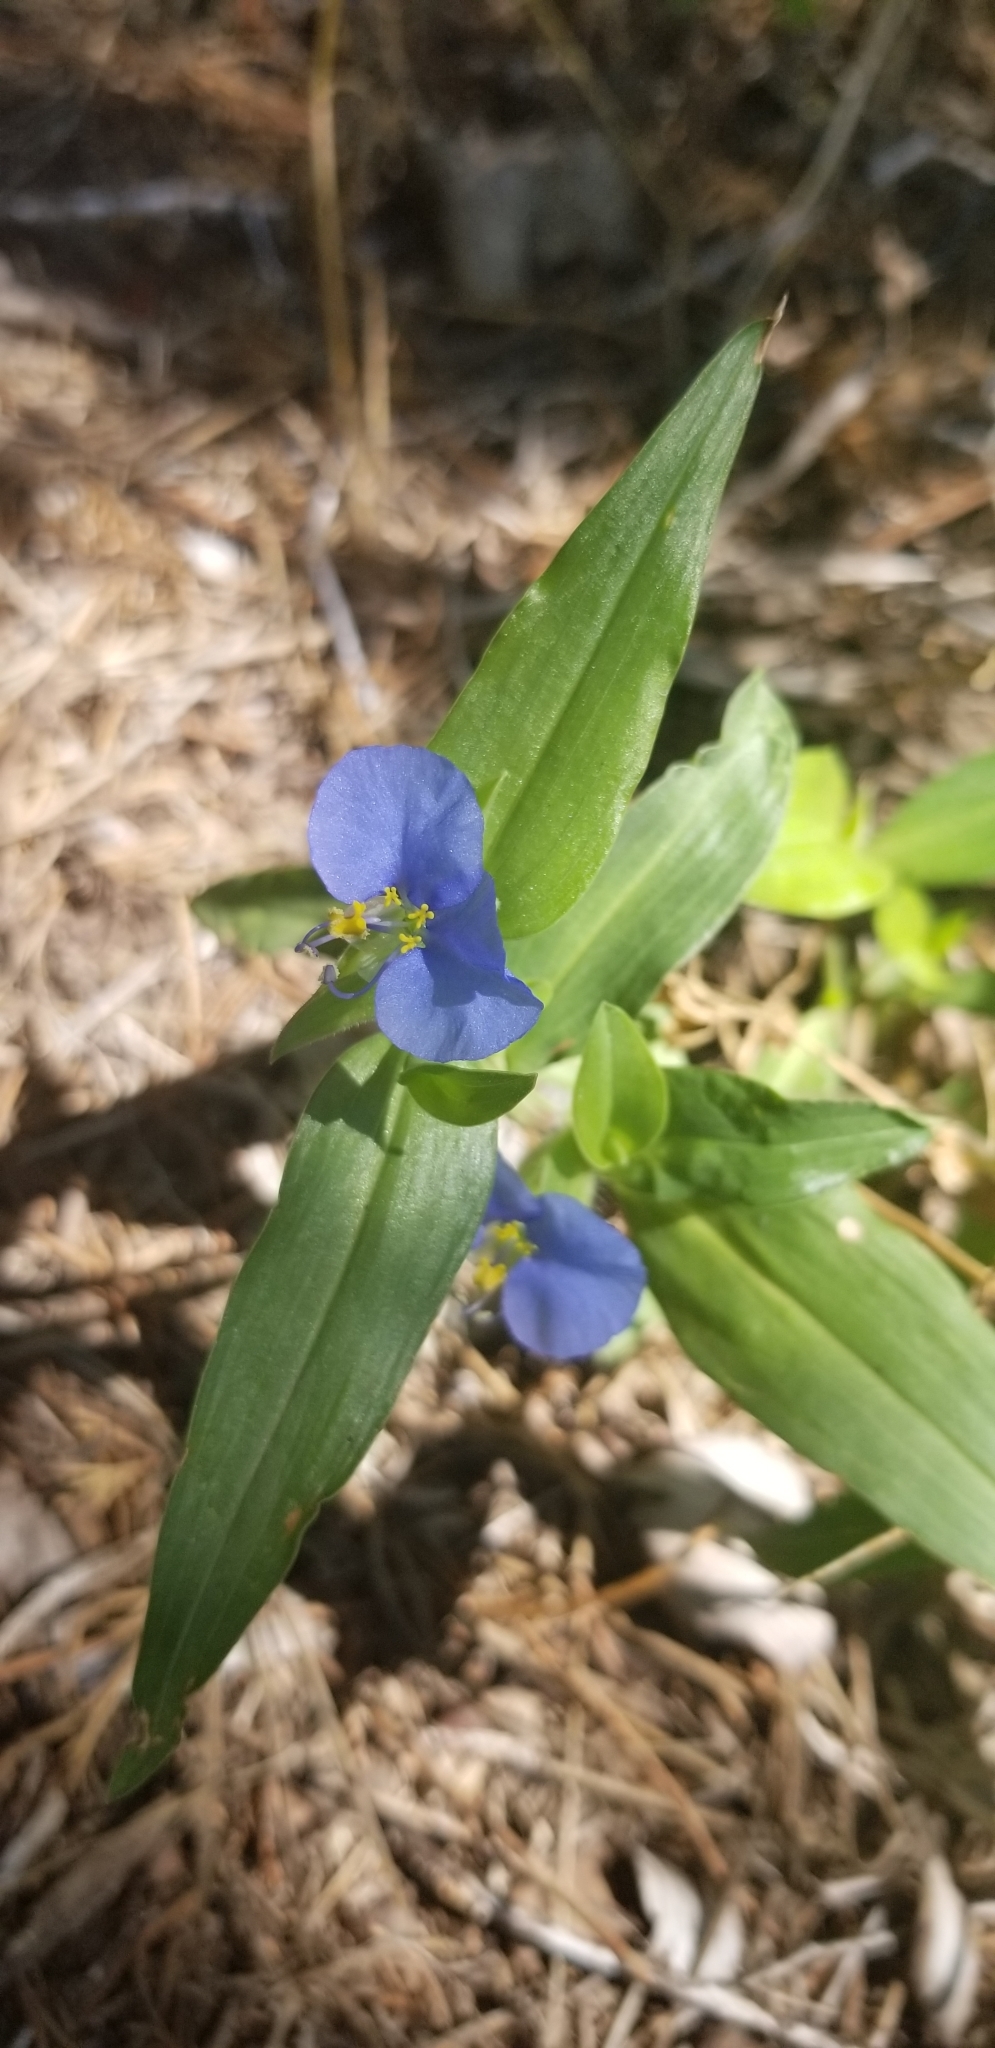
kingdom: Plantae
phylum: Tracheophyta
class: Liliopsida
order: Commelinales
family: Commelinaceae
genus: Commelina
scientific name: Commelina erecta
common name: Blousel blommetjie
